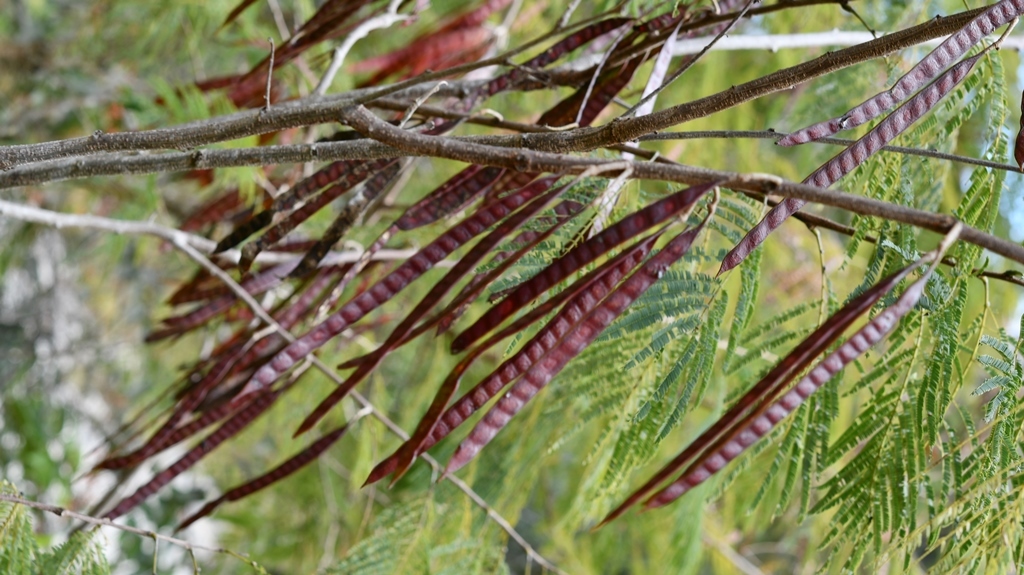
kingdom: Plantae
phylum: Tracheophyta
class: Magnoliopsida
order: Fabales
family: Fabaceae
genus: Leucaena
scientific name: Leucaena collinsii
